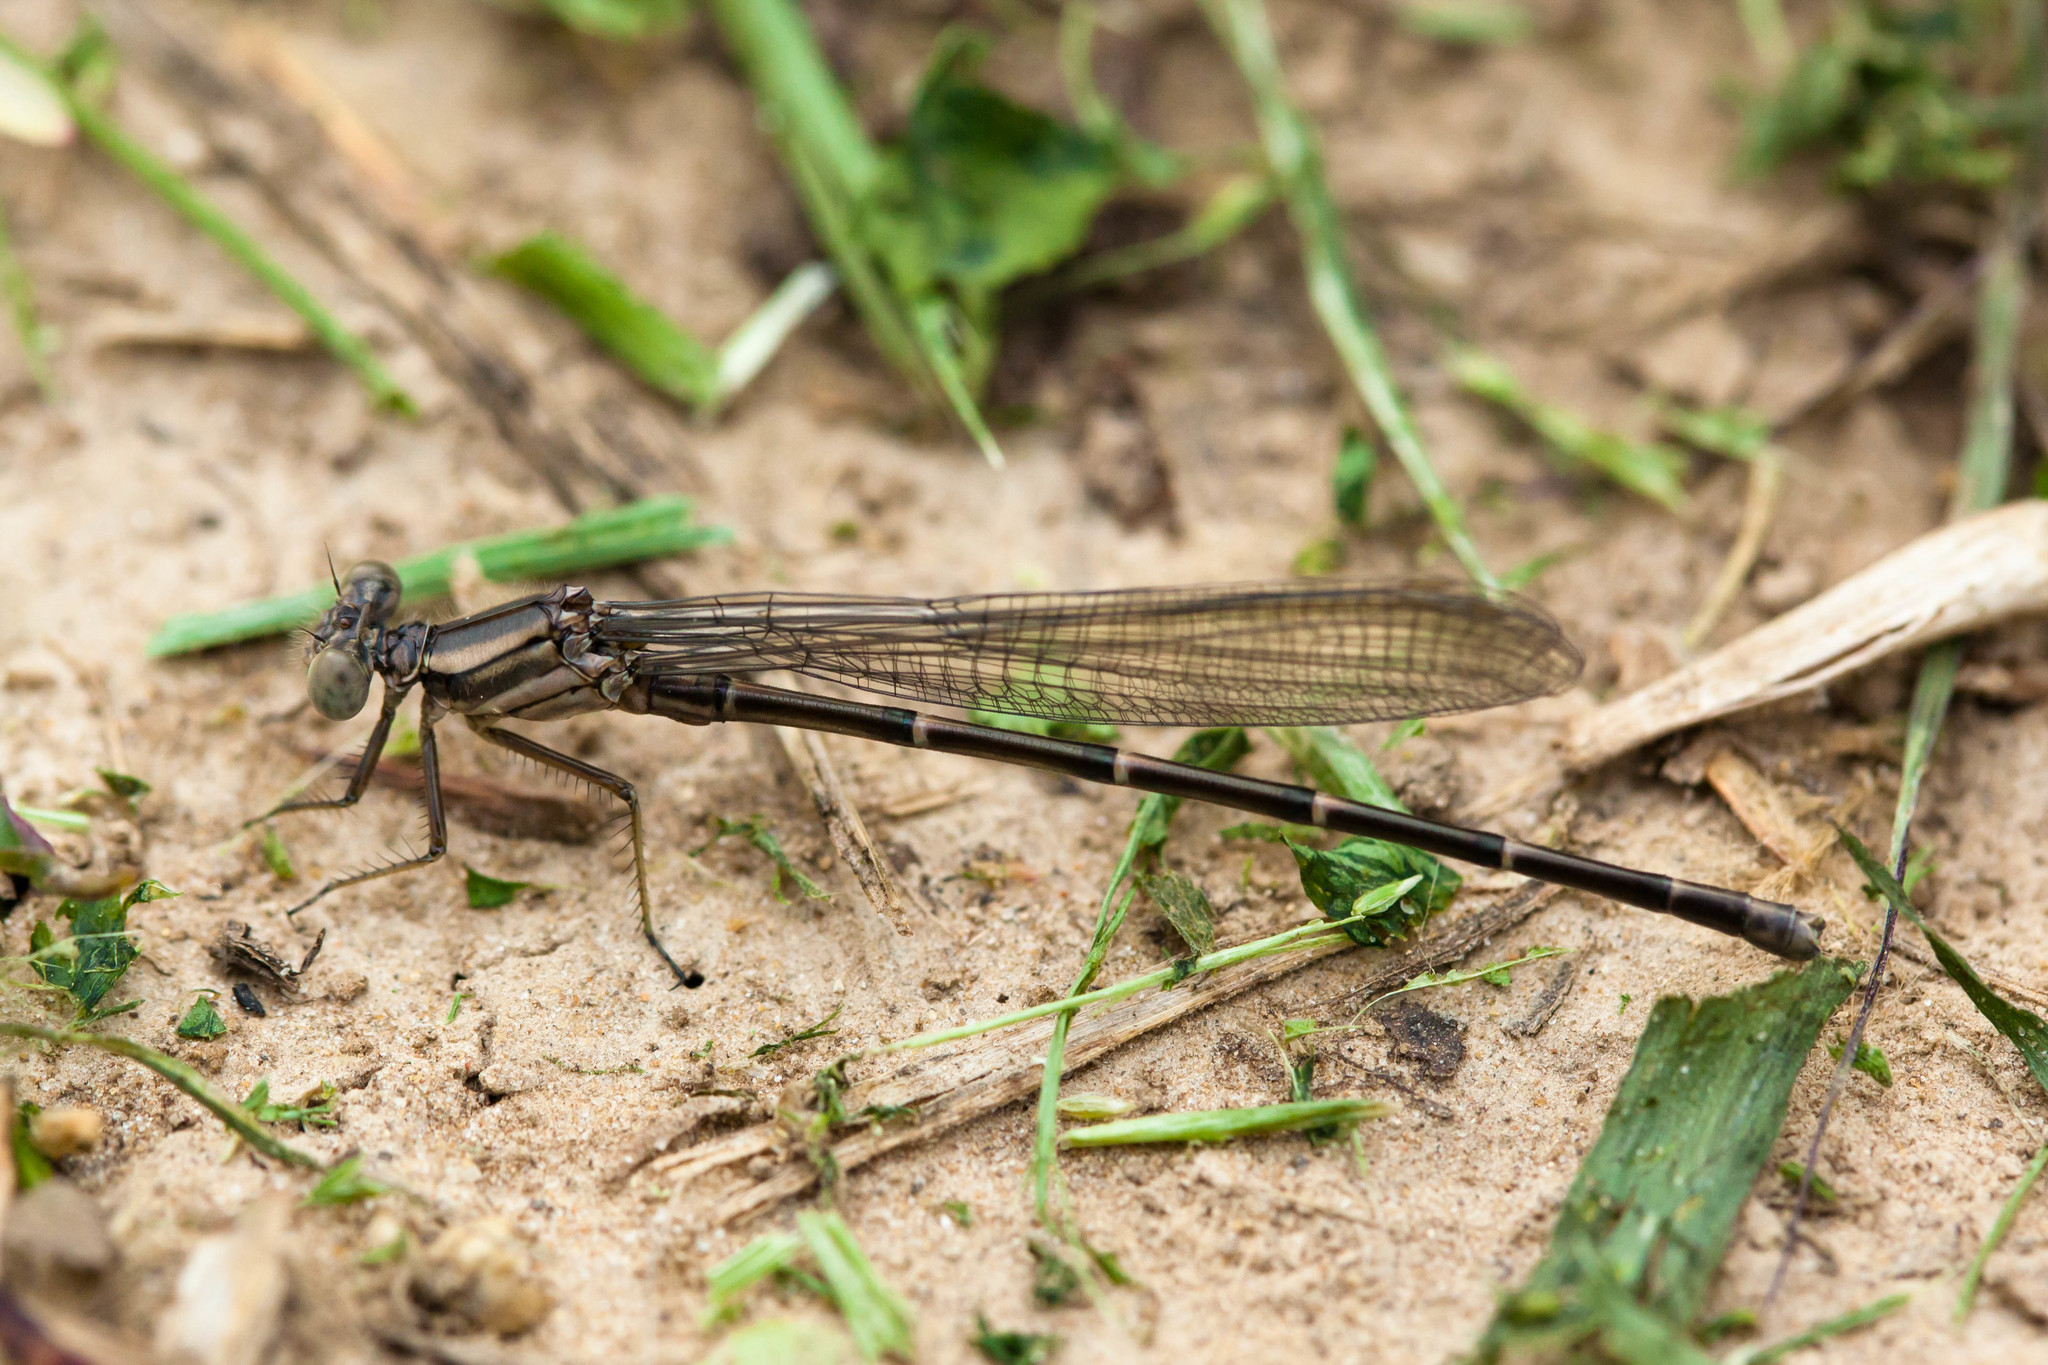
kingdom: Animalia
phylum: Arthropoda
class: Insecta
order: Odonata
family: Coenagrionidae
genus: Argia
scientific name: Argia moesta
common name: Powdered dancer
